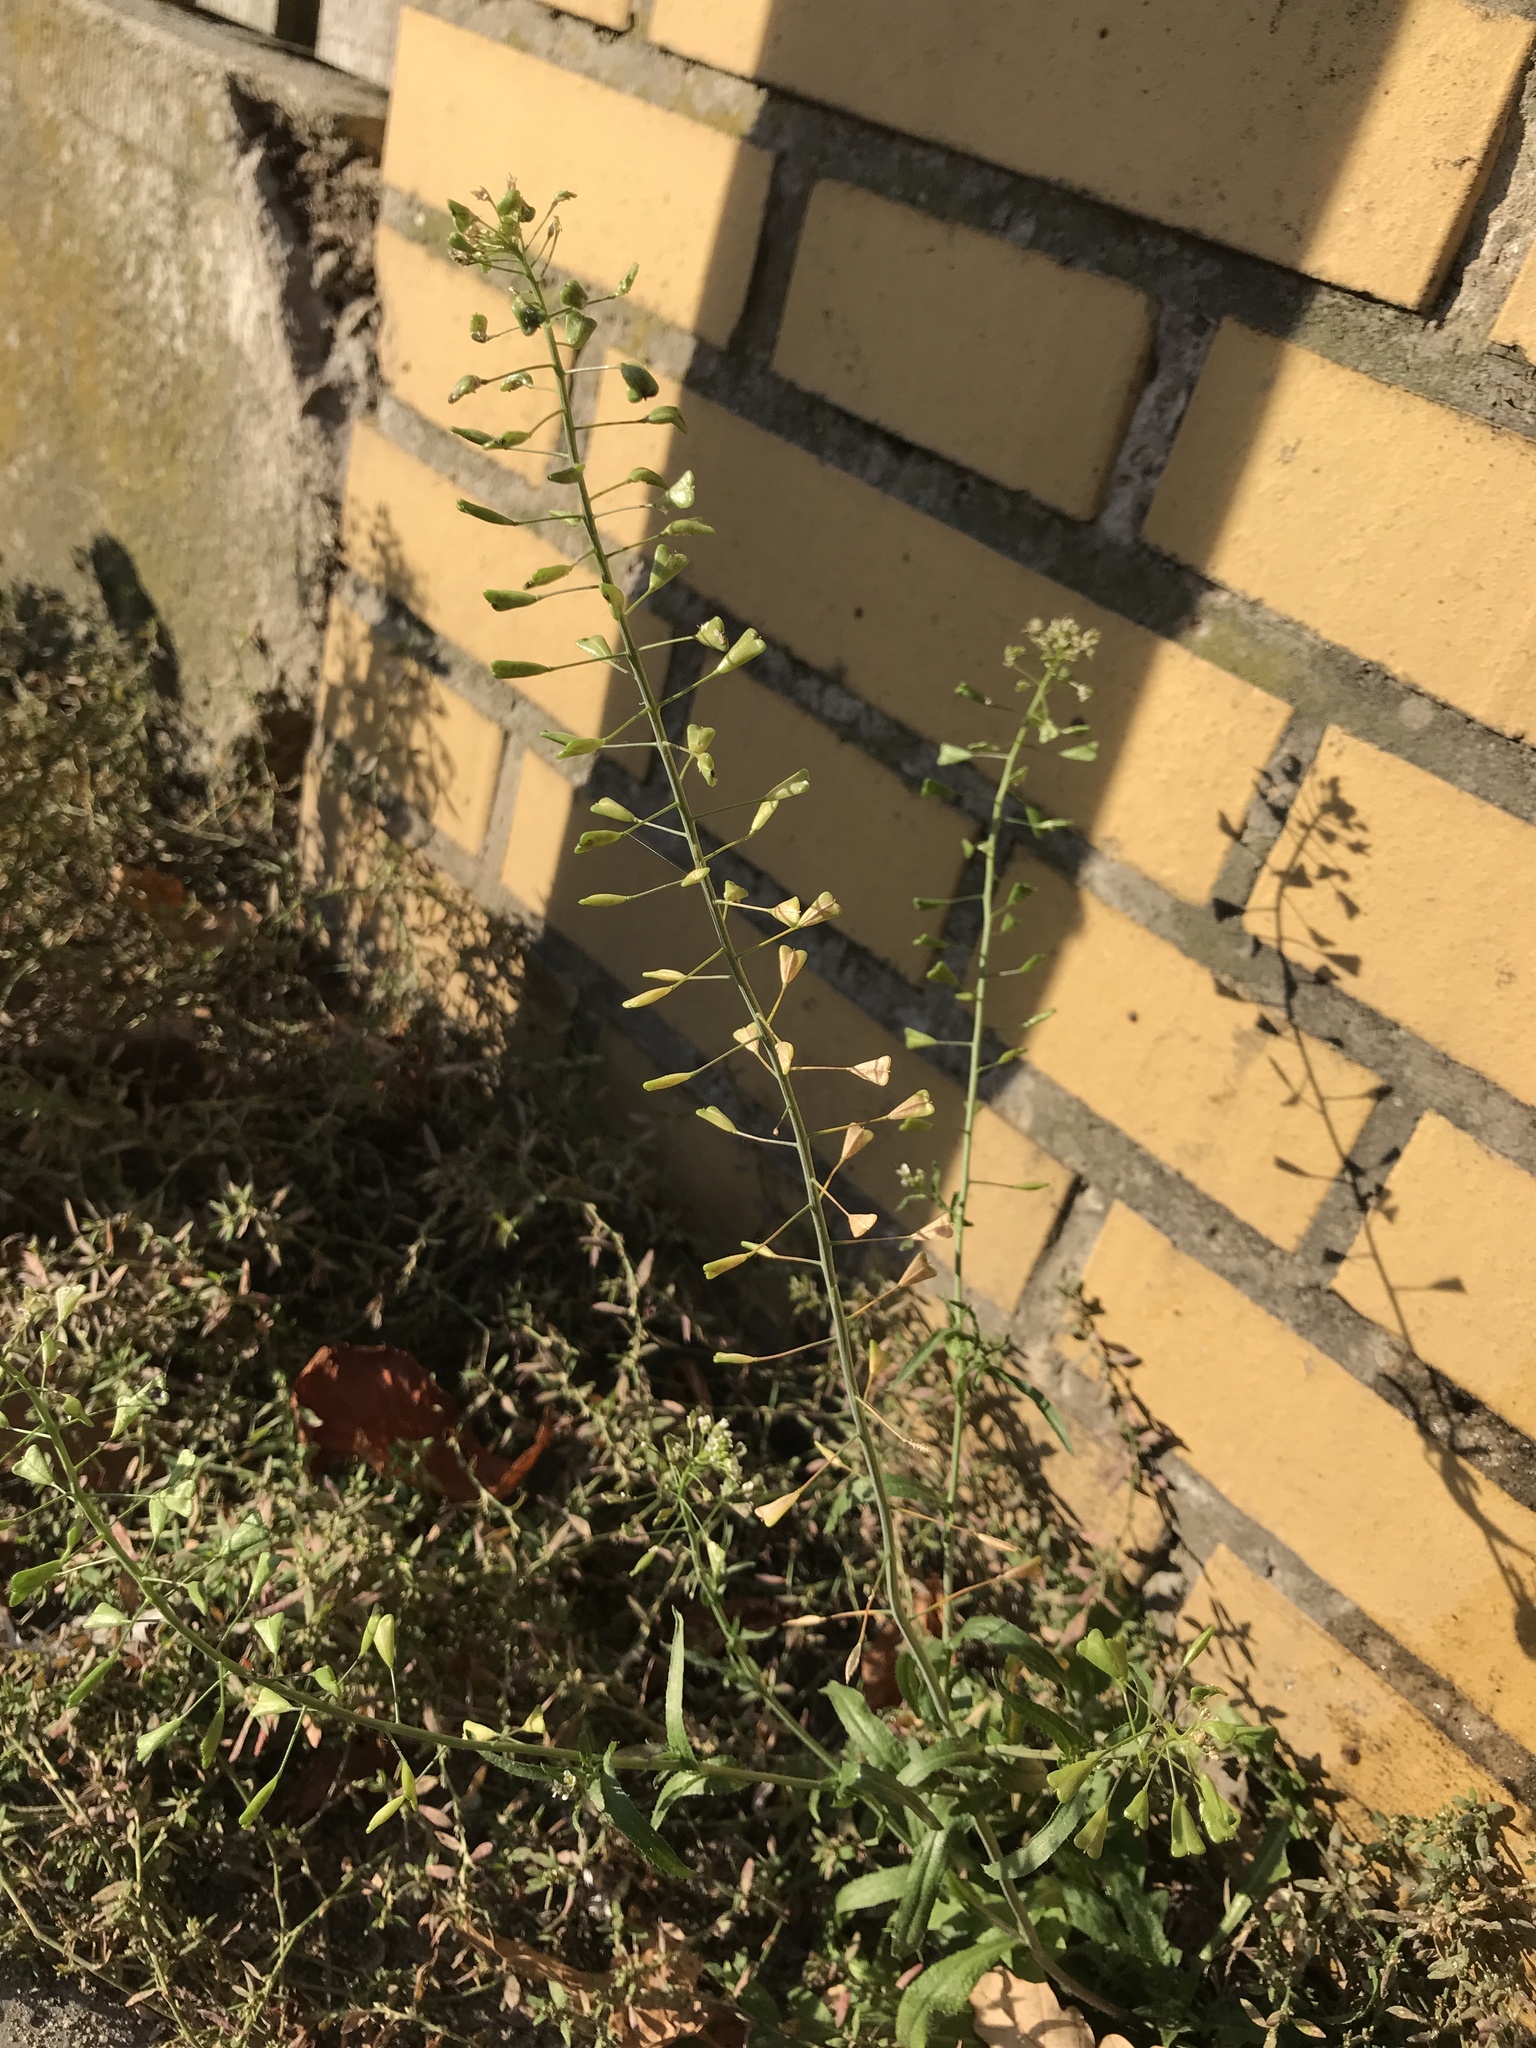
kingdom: Plantae
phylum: Tracheophyta
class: Magnoliopsida
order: Brassicales
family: Brassicaceae
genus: Capsella
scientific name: Capsella bursa-pastoris
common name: Shepherd's purse
